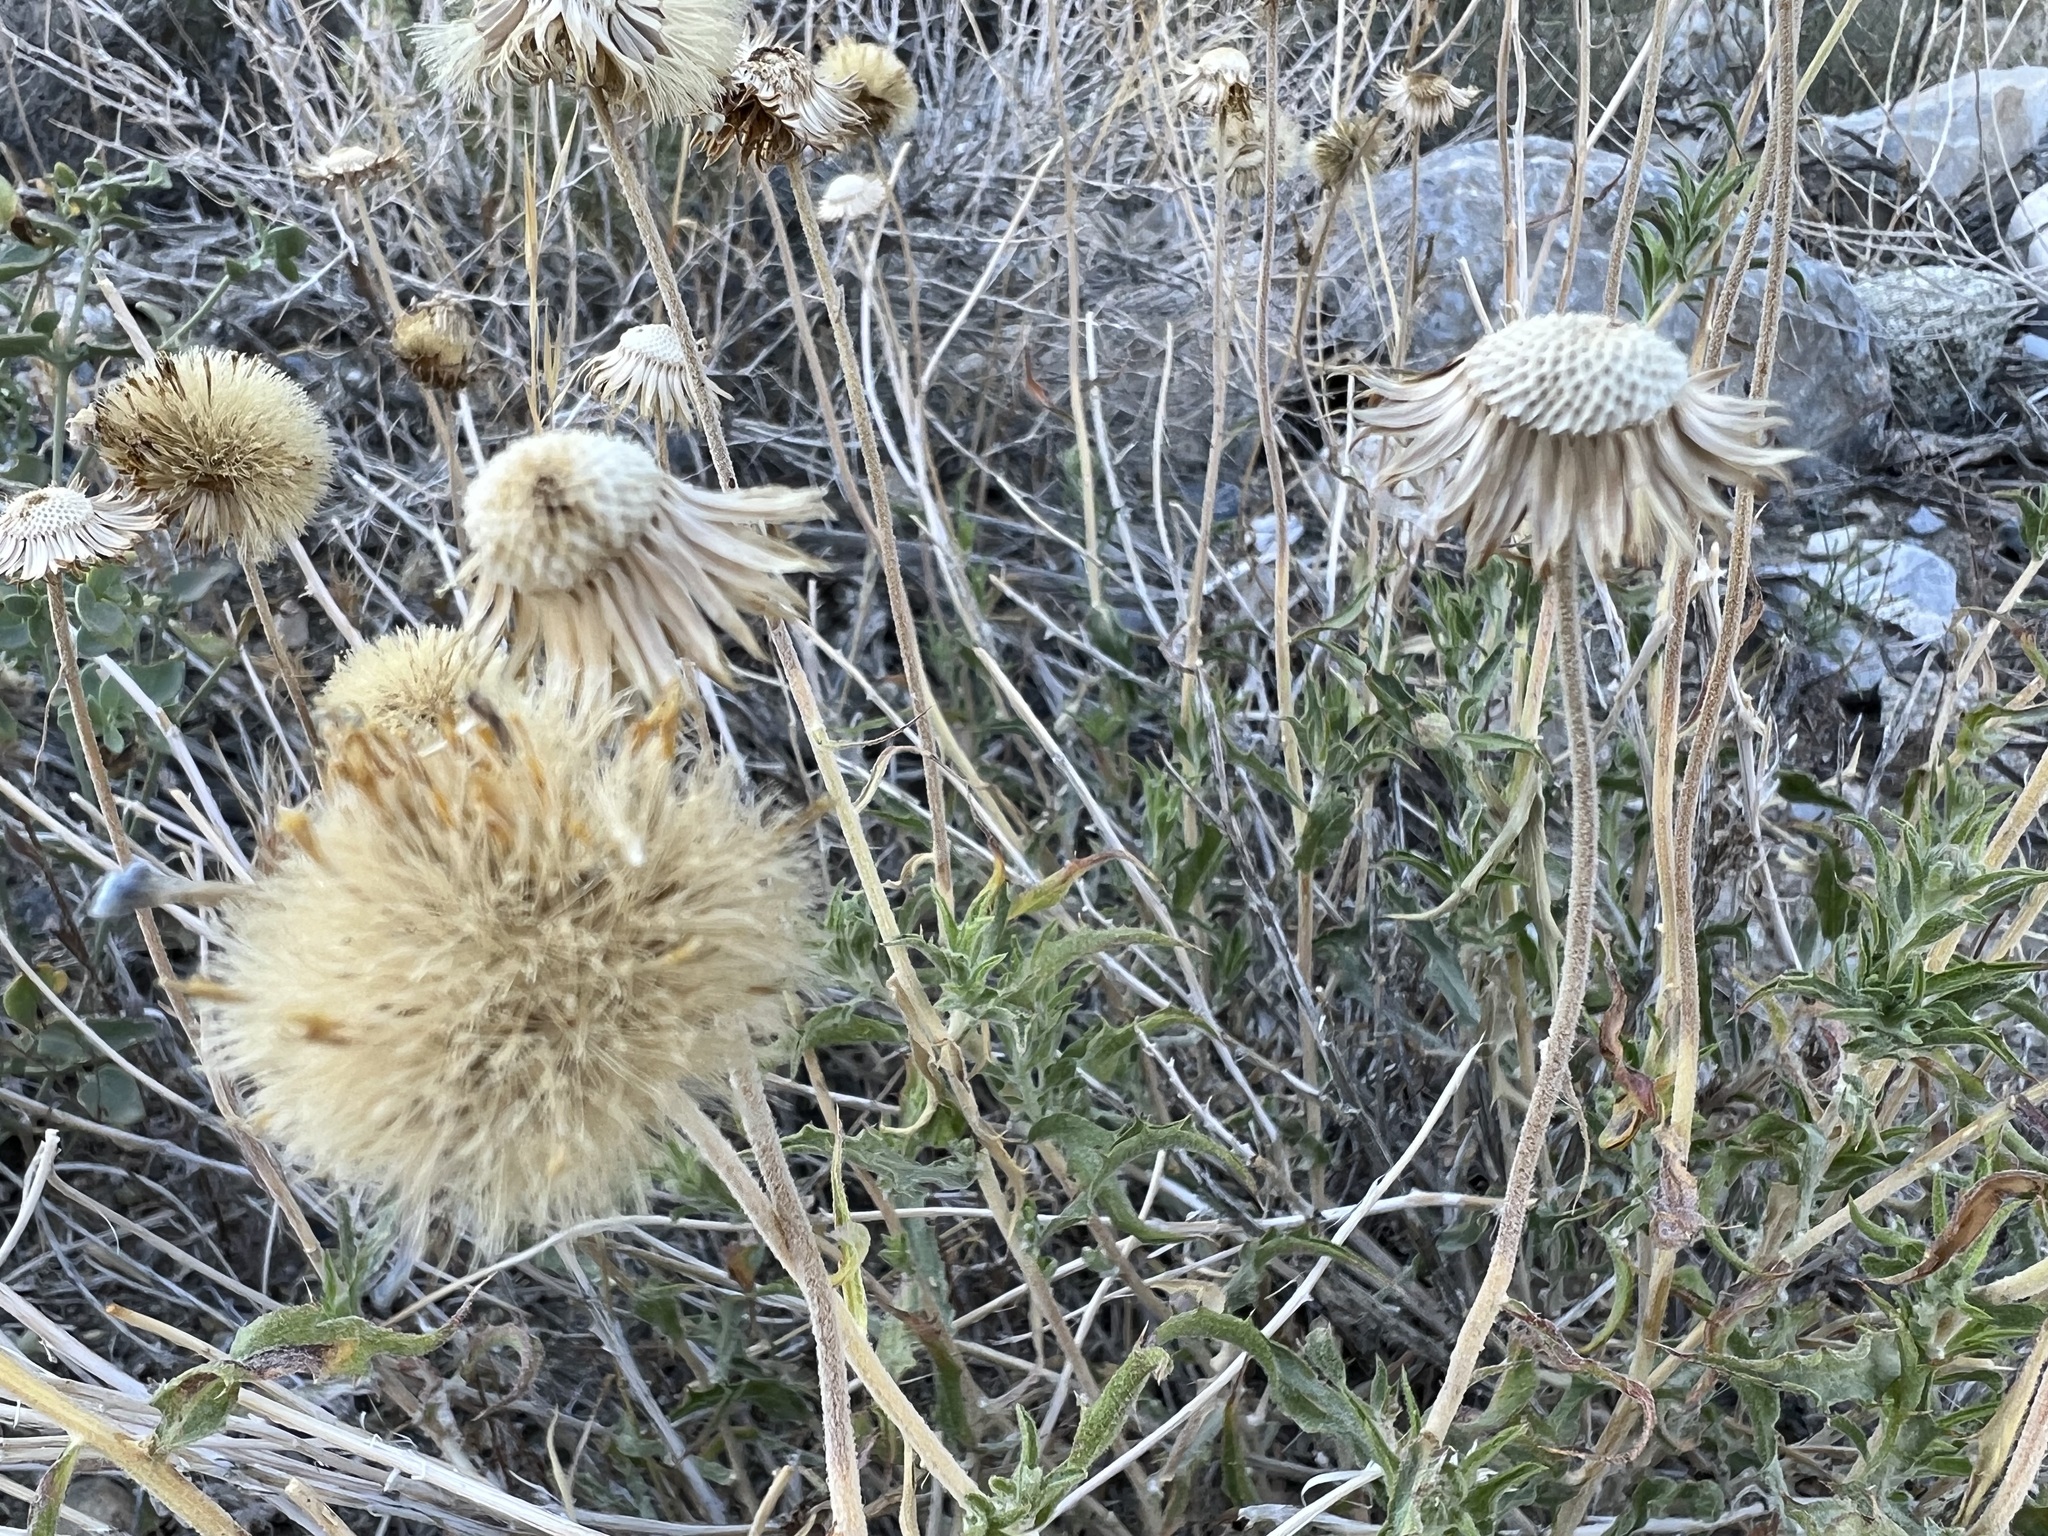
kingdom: Plantae
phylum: Tracheophyta
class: Magnoliopsida
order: Asterales
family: Asteraceae
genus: Xylorhiza
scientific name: Xylorhiza tortifolia
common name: Hurt-leaf woody-aster
